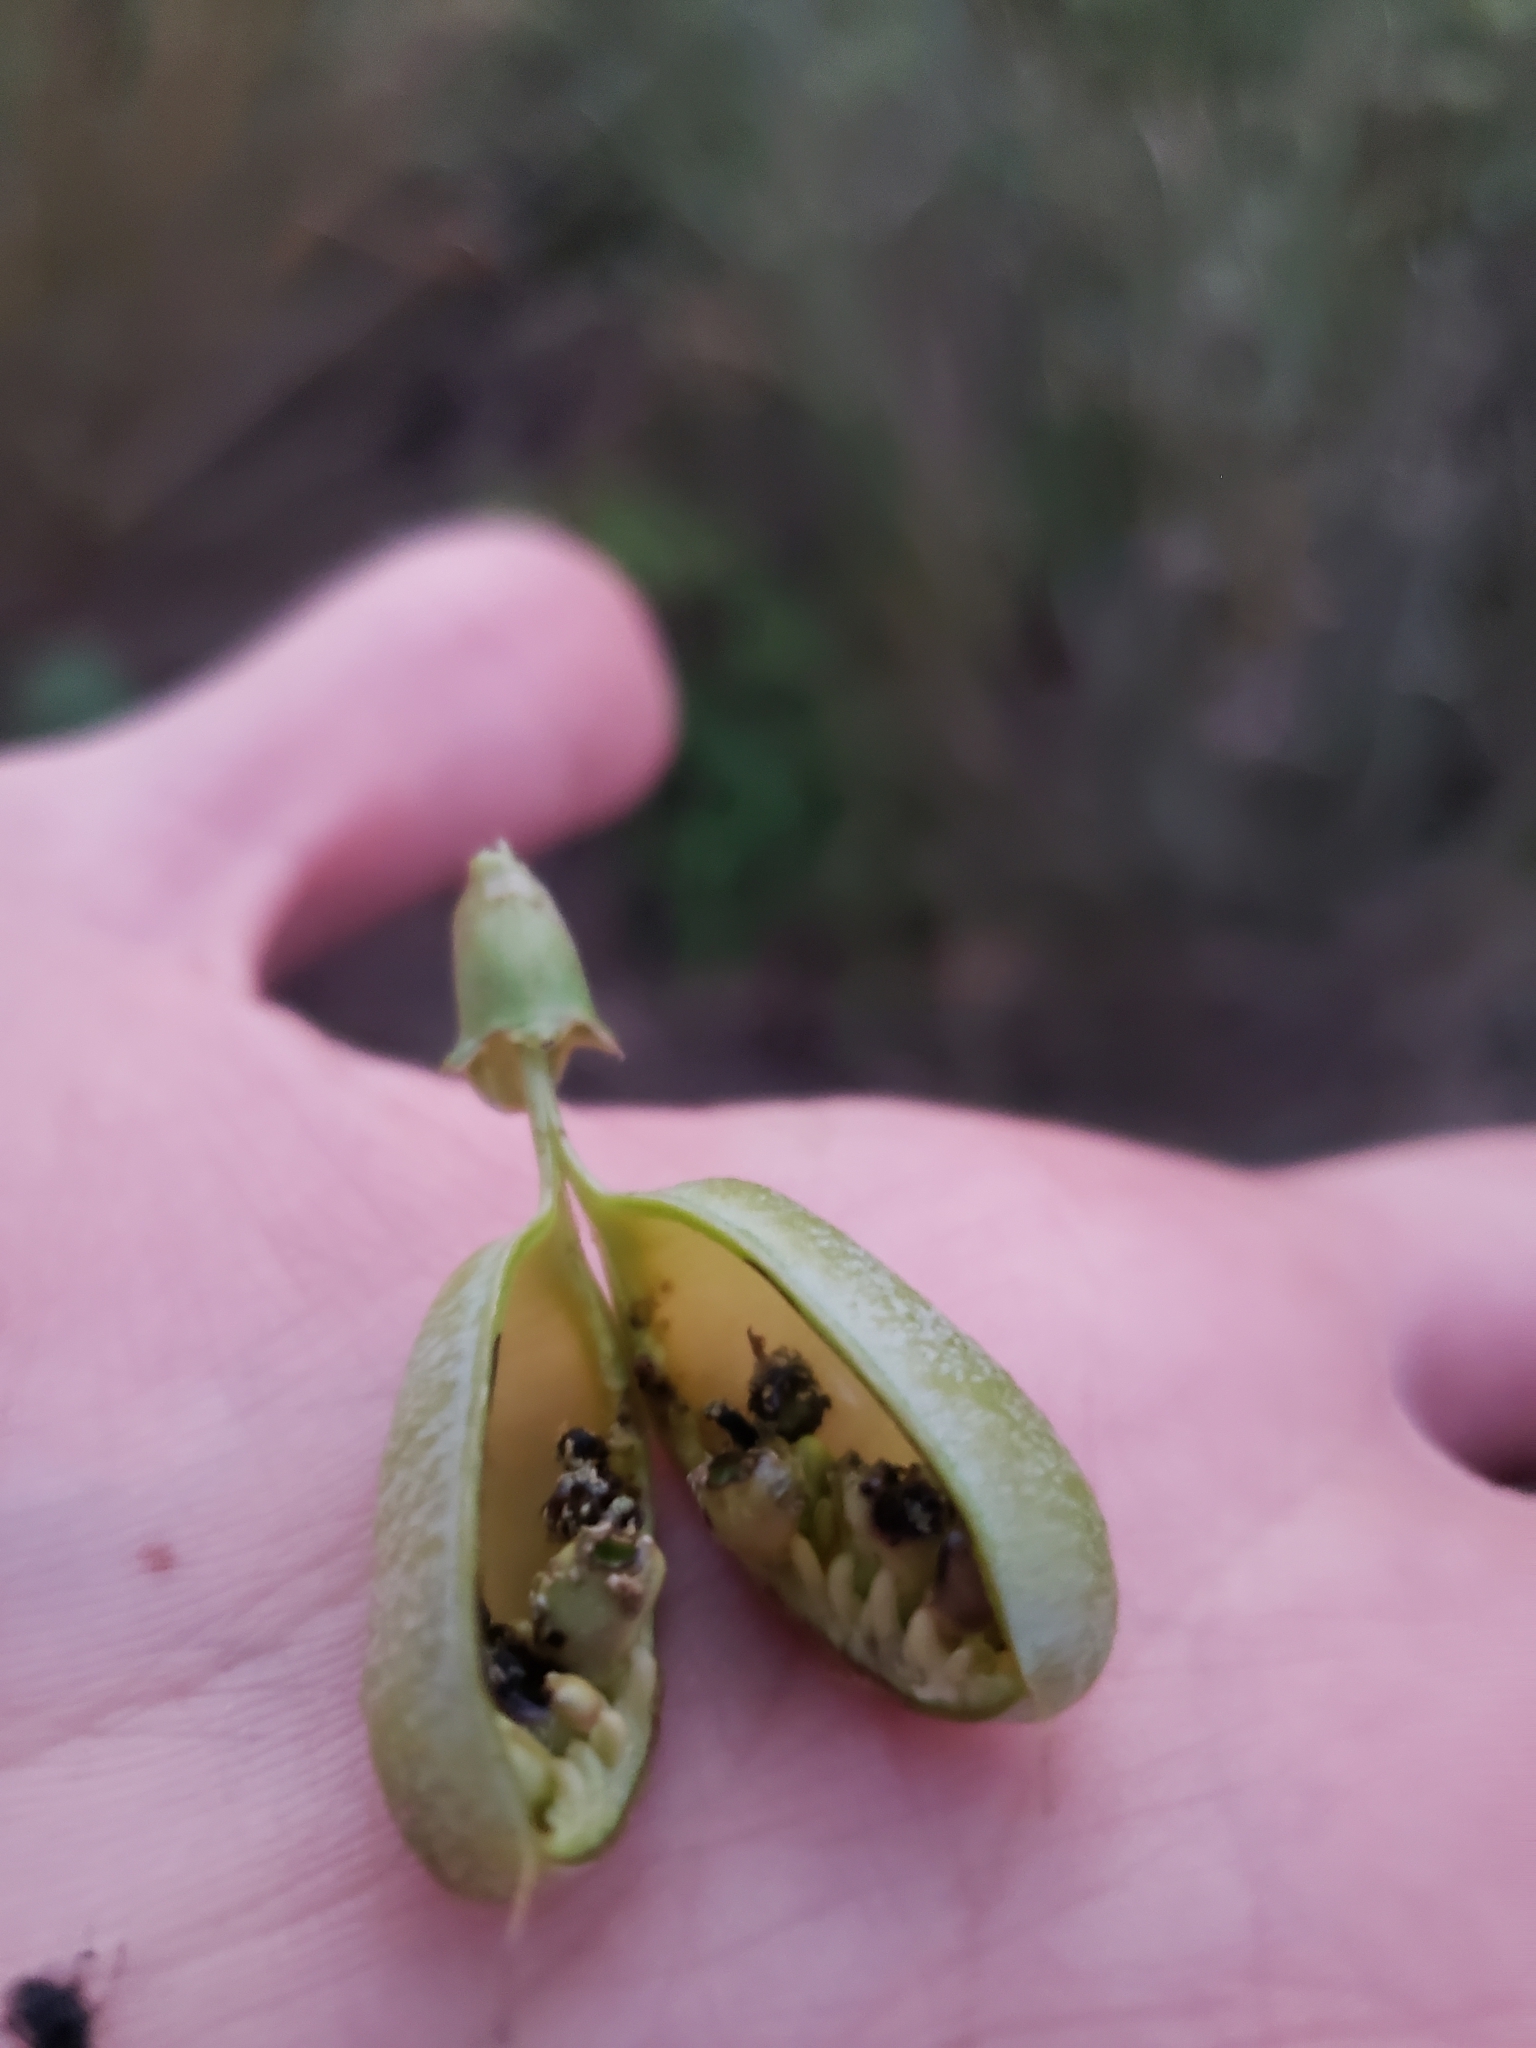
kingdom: Plantae
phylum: Tracheophyta
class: Magnoliopsida
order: Fabales
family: Fabaceae
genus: Baptisia
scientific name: Baptisia alba
